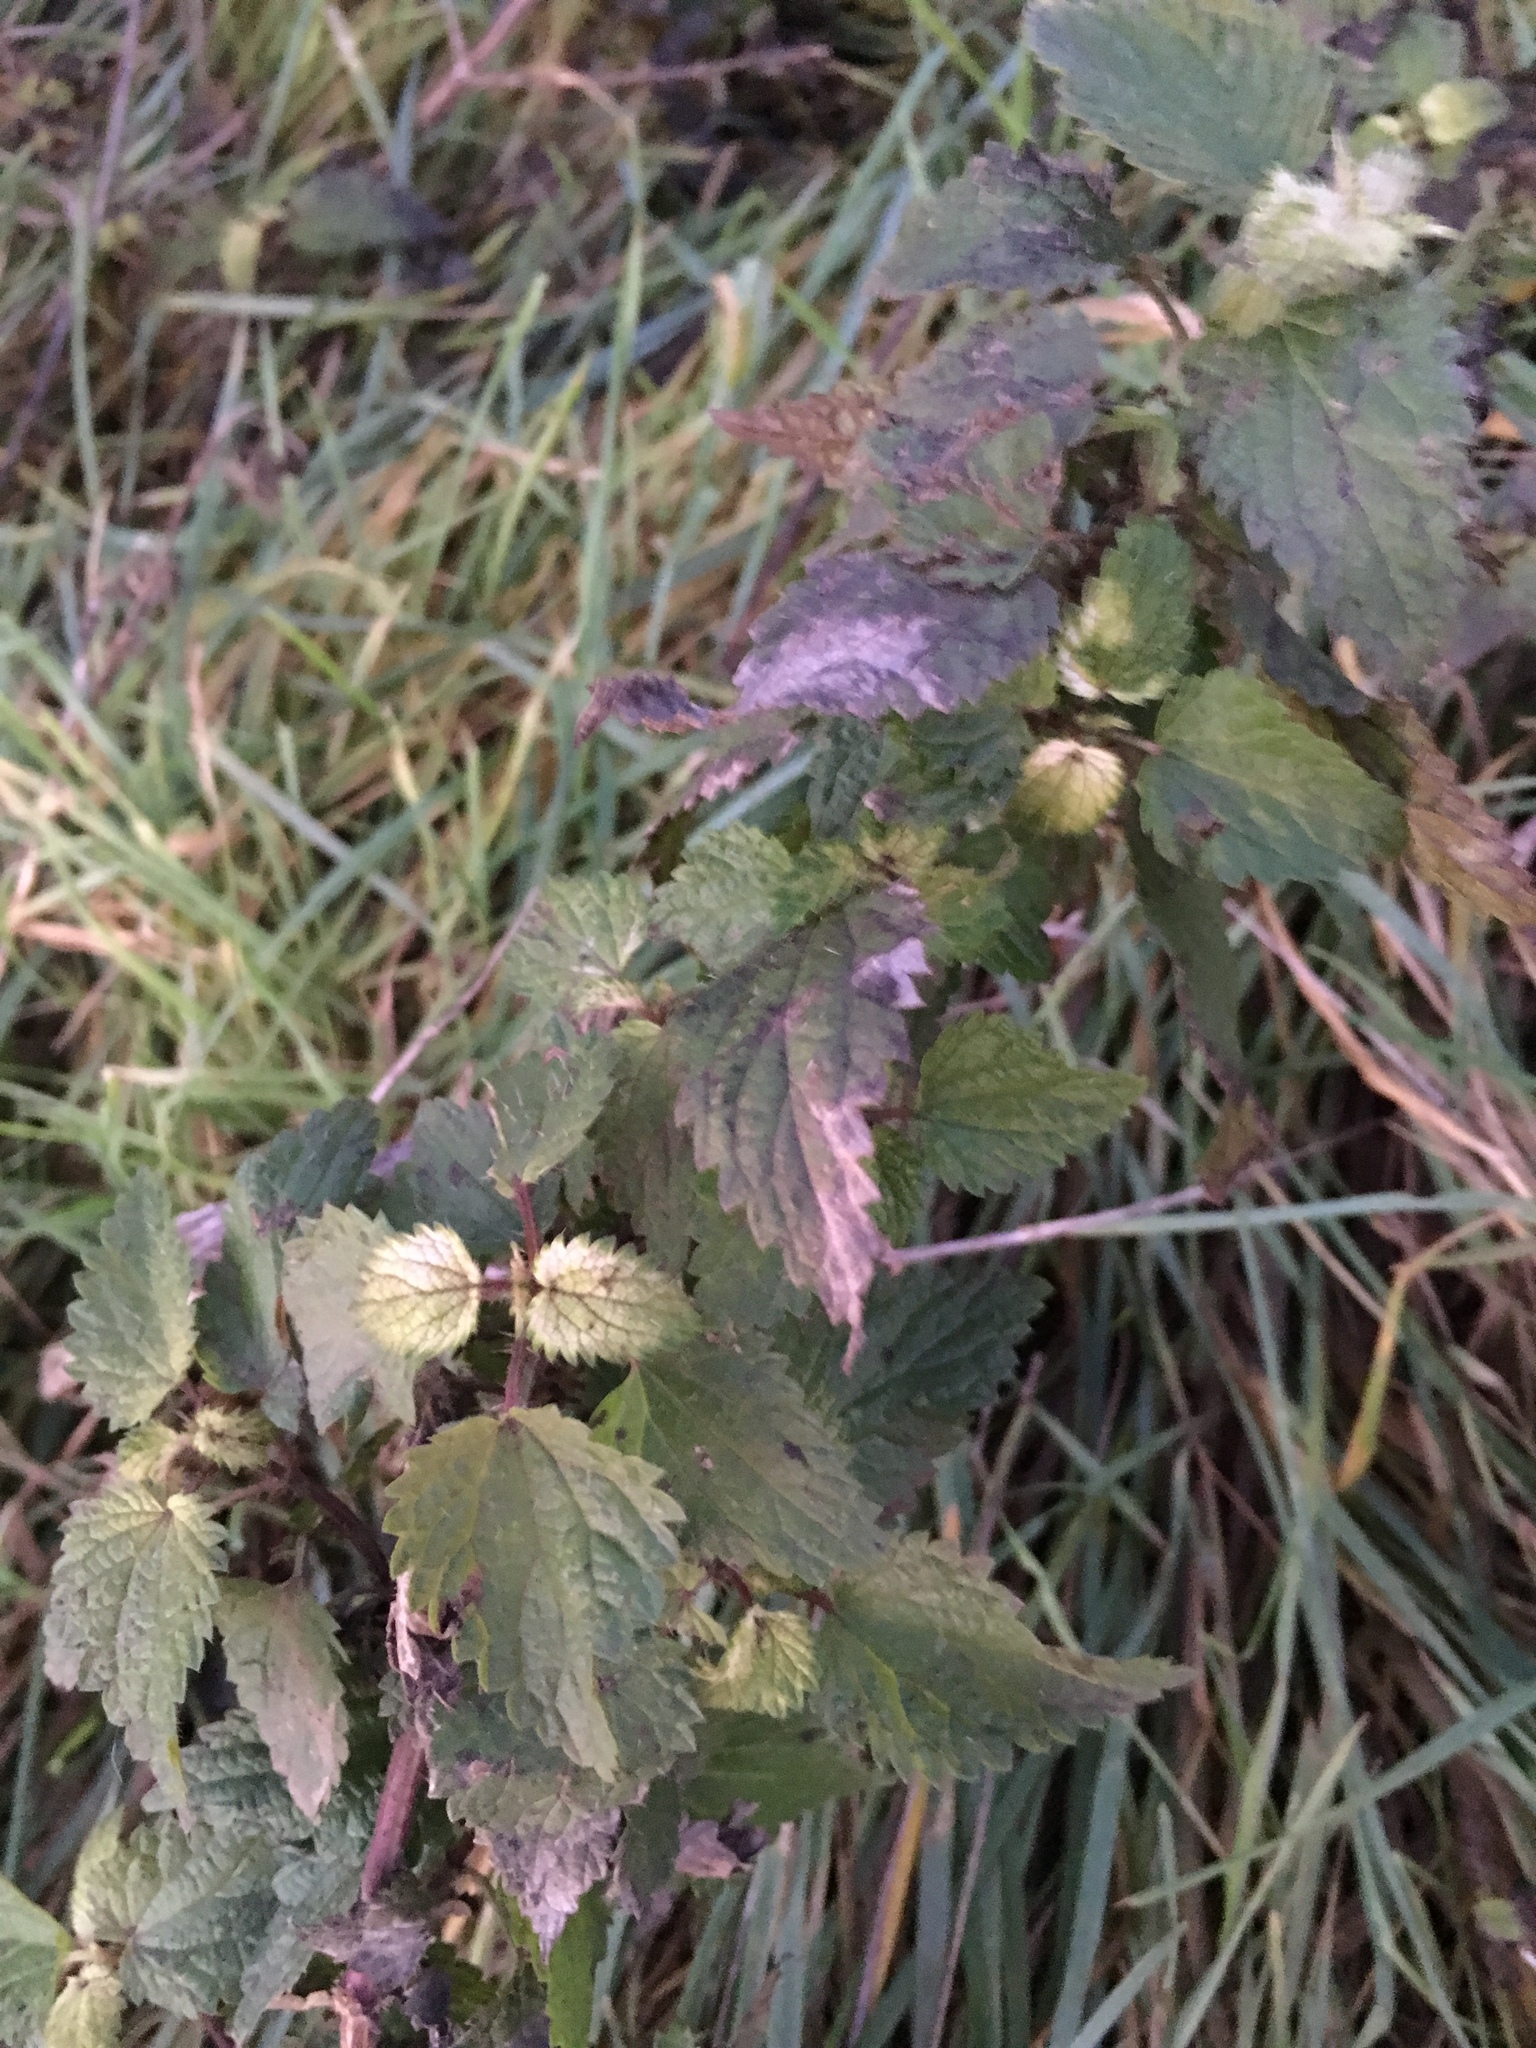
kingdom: Plantae
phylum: Tracheophyta
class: Magnoliopsida
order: Rosales
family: Urticaceae
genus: Urtica
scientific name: Urtica dioica
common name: Common nettle
